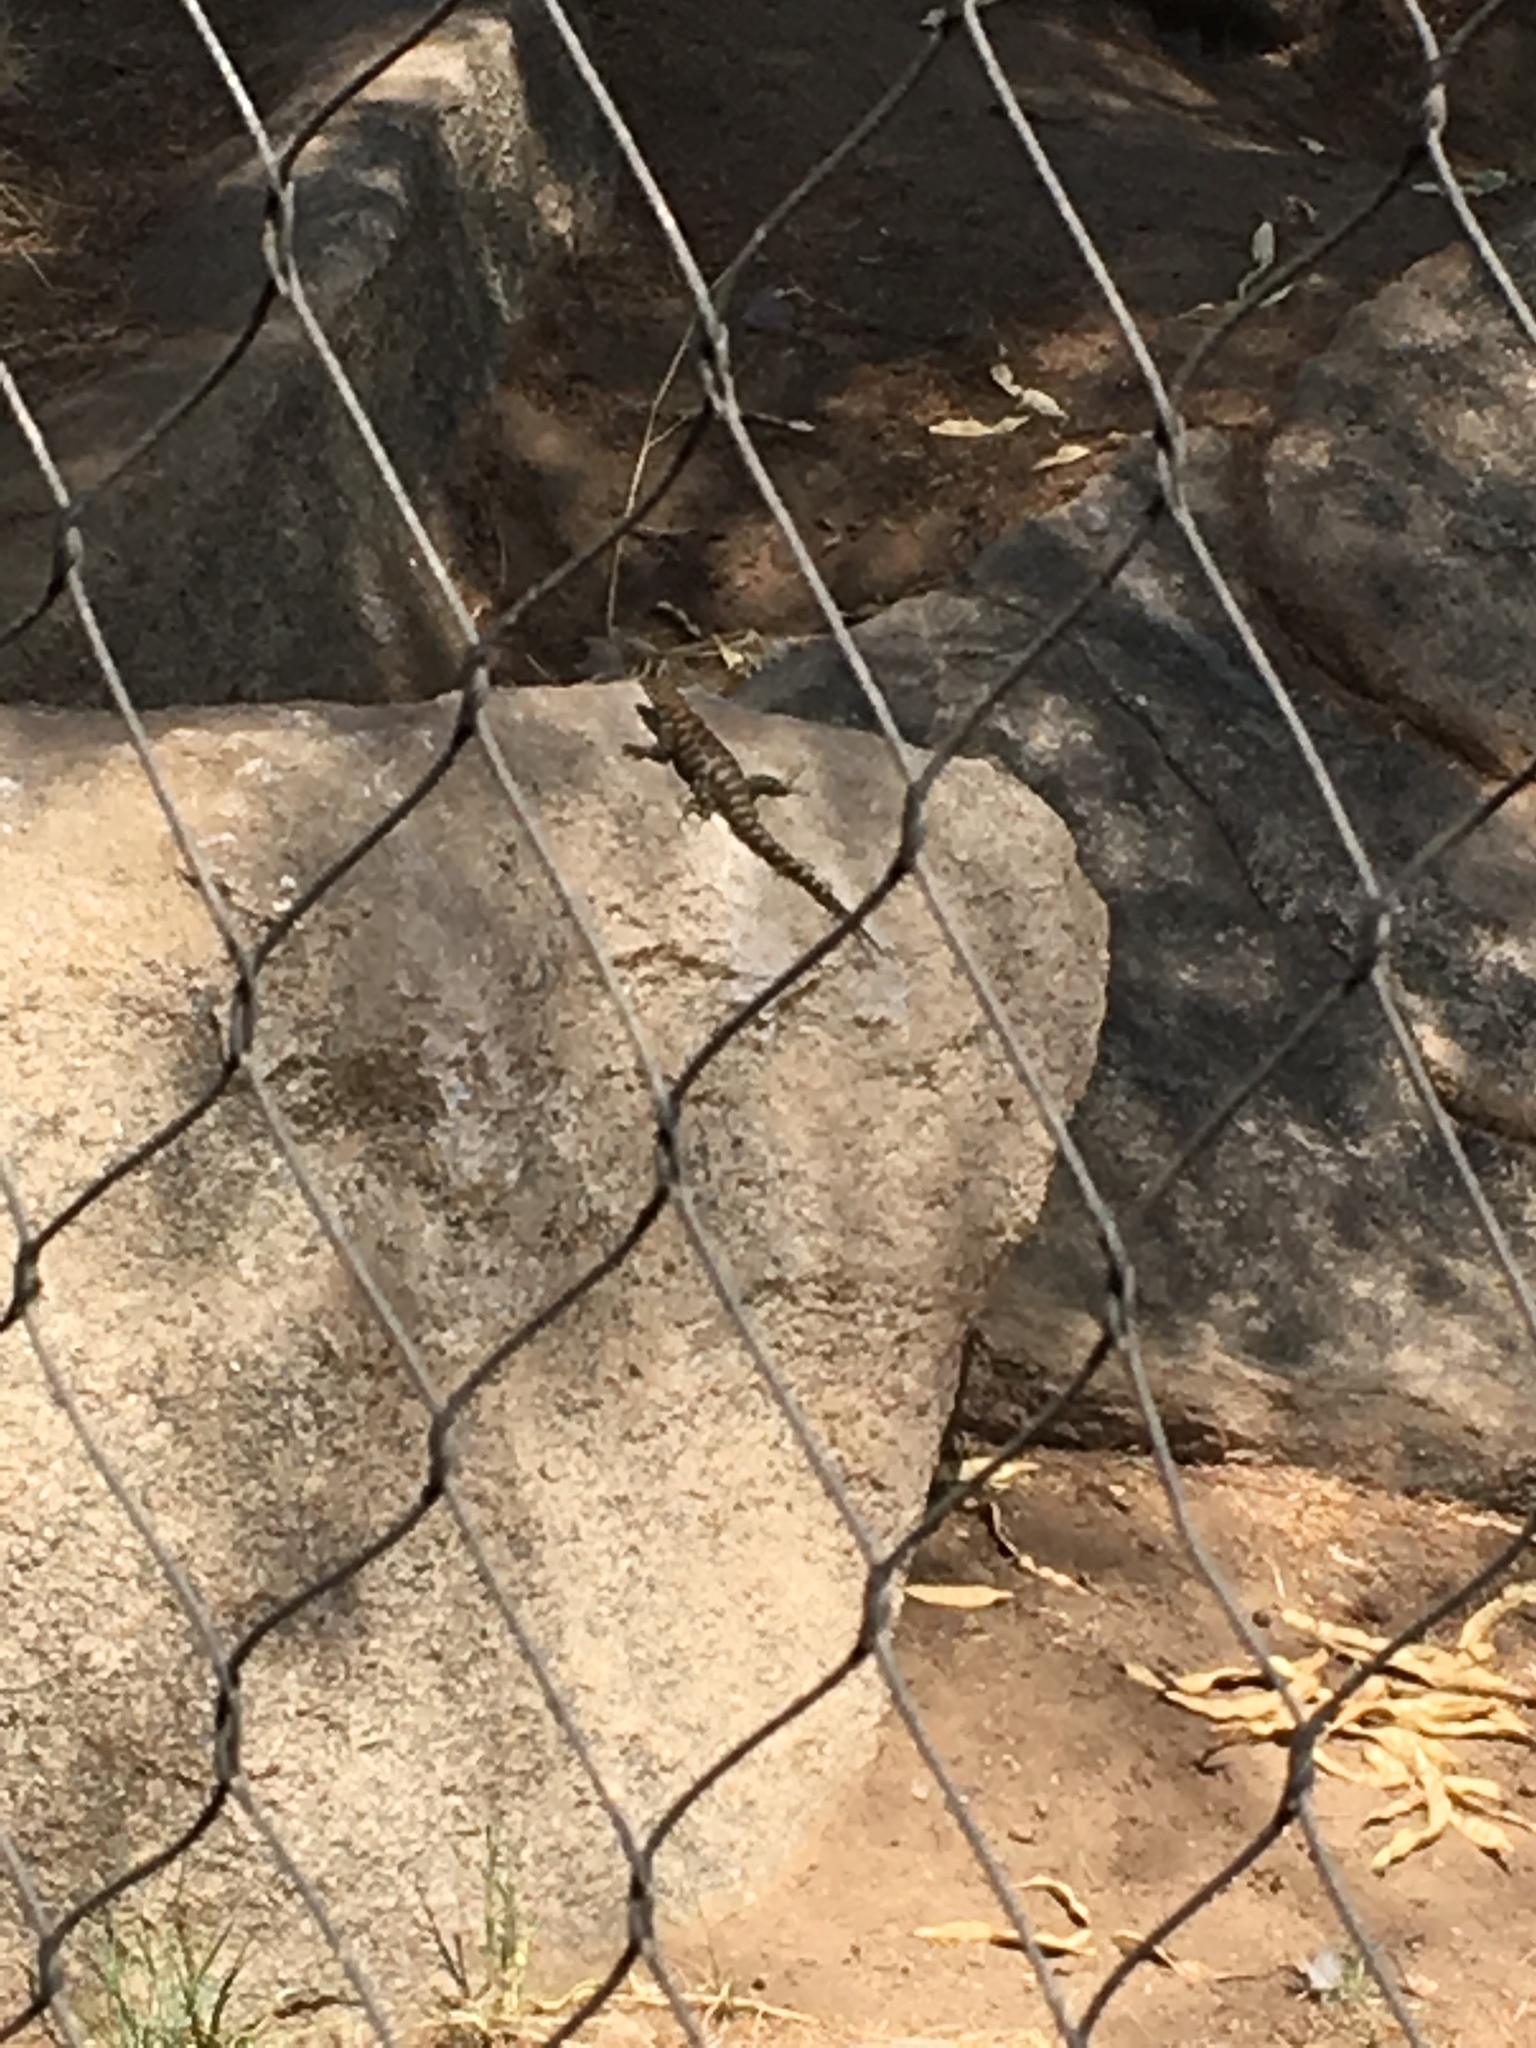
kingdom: Animalia
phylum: Chordata
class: Squamata
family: Phrynosomatidae
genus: Sceloporus
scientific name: Sceloporus orcutti
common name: Granite spiny lizard
